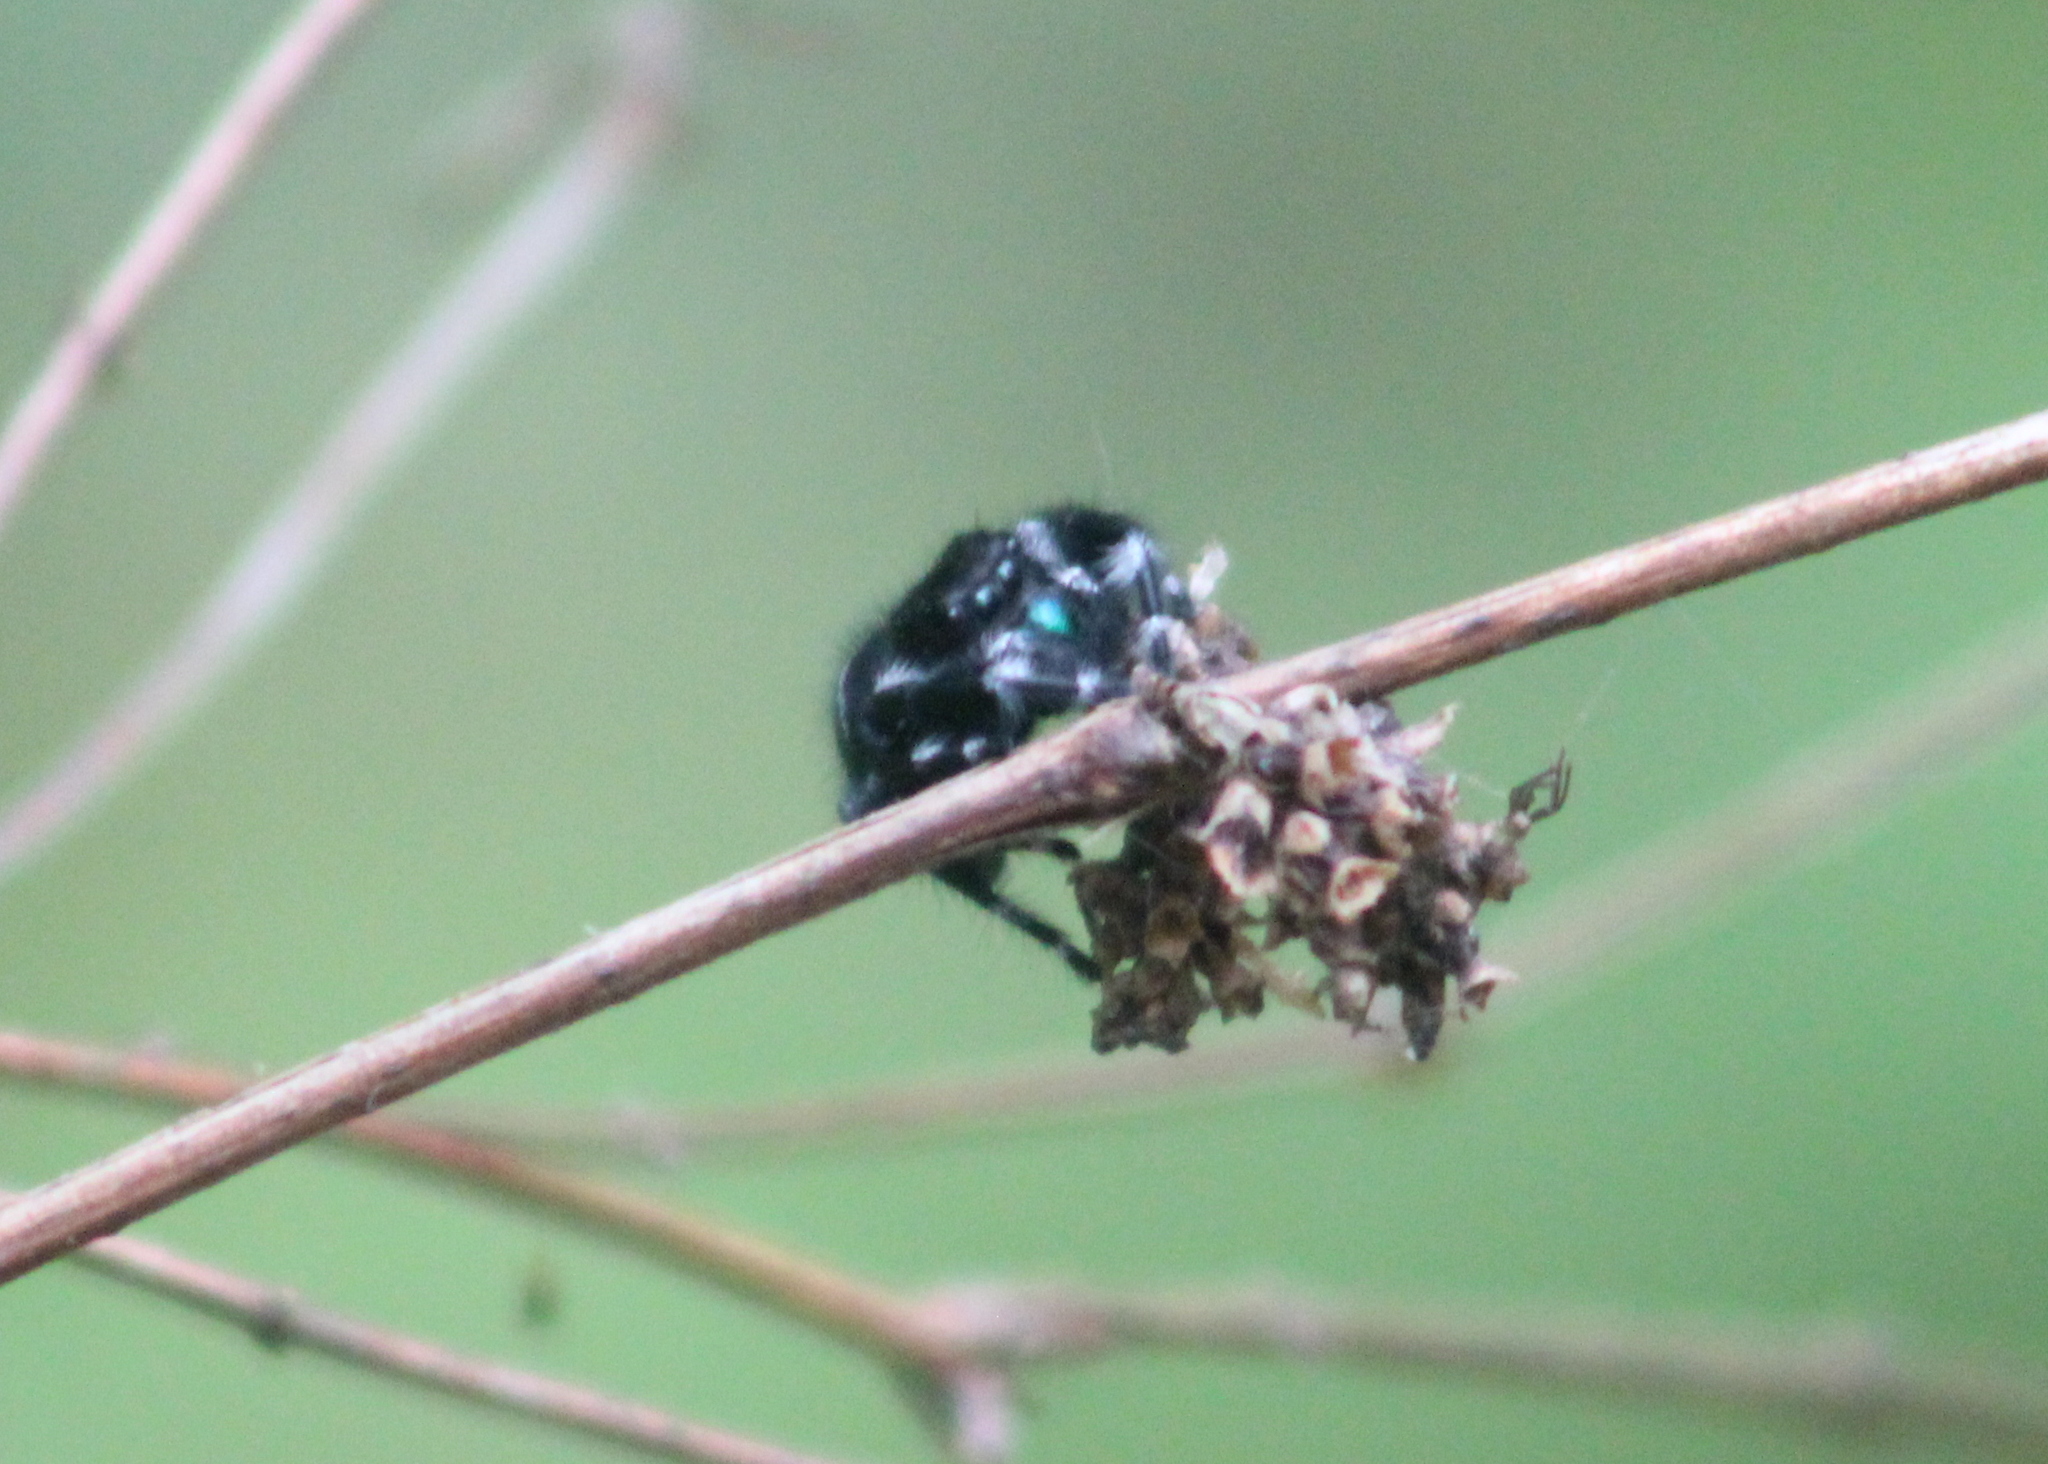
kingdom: Animalia
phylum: Arthropoda
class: Arachnida
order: Araneae
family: Salticidae
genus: Phidippus
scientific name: Phidippus audax
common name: Bold jumper
